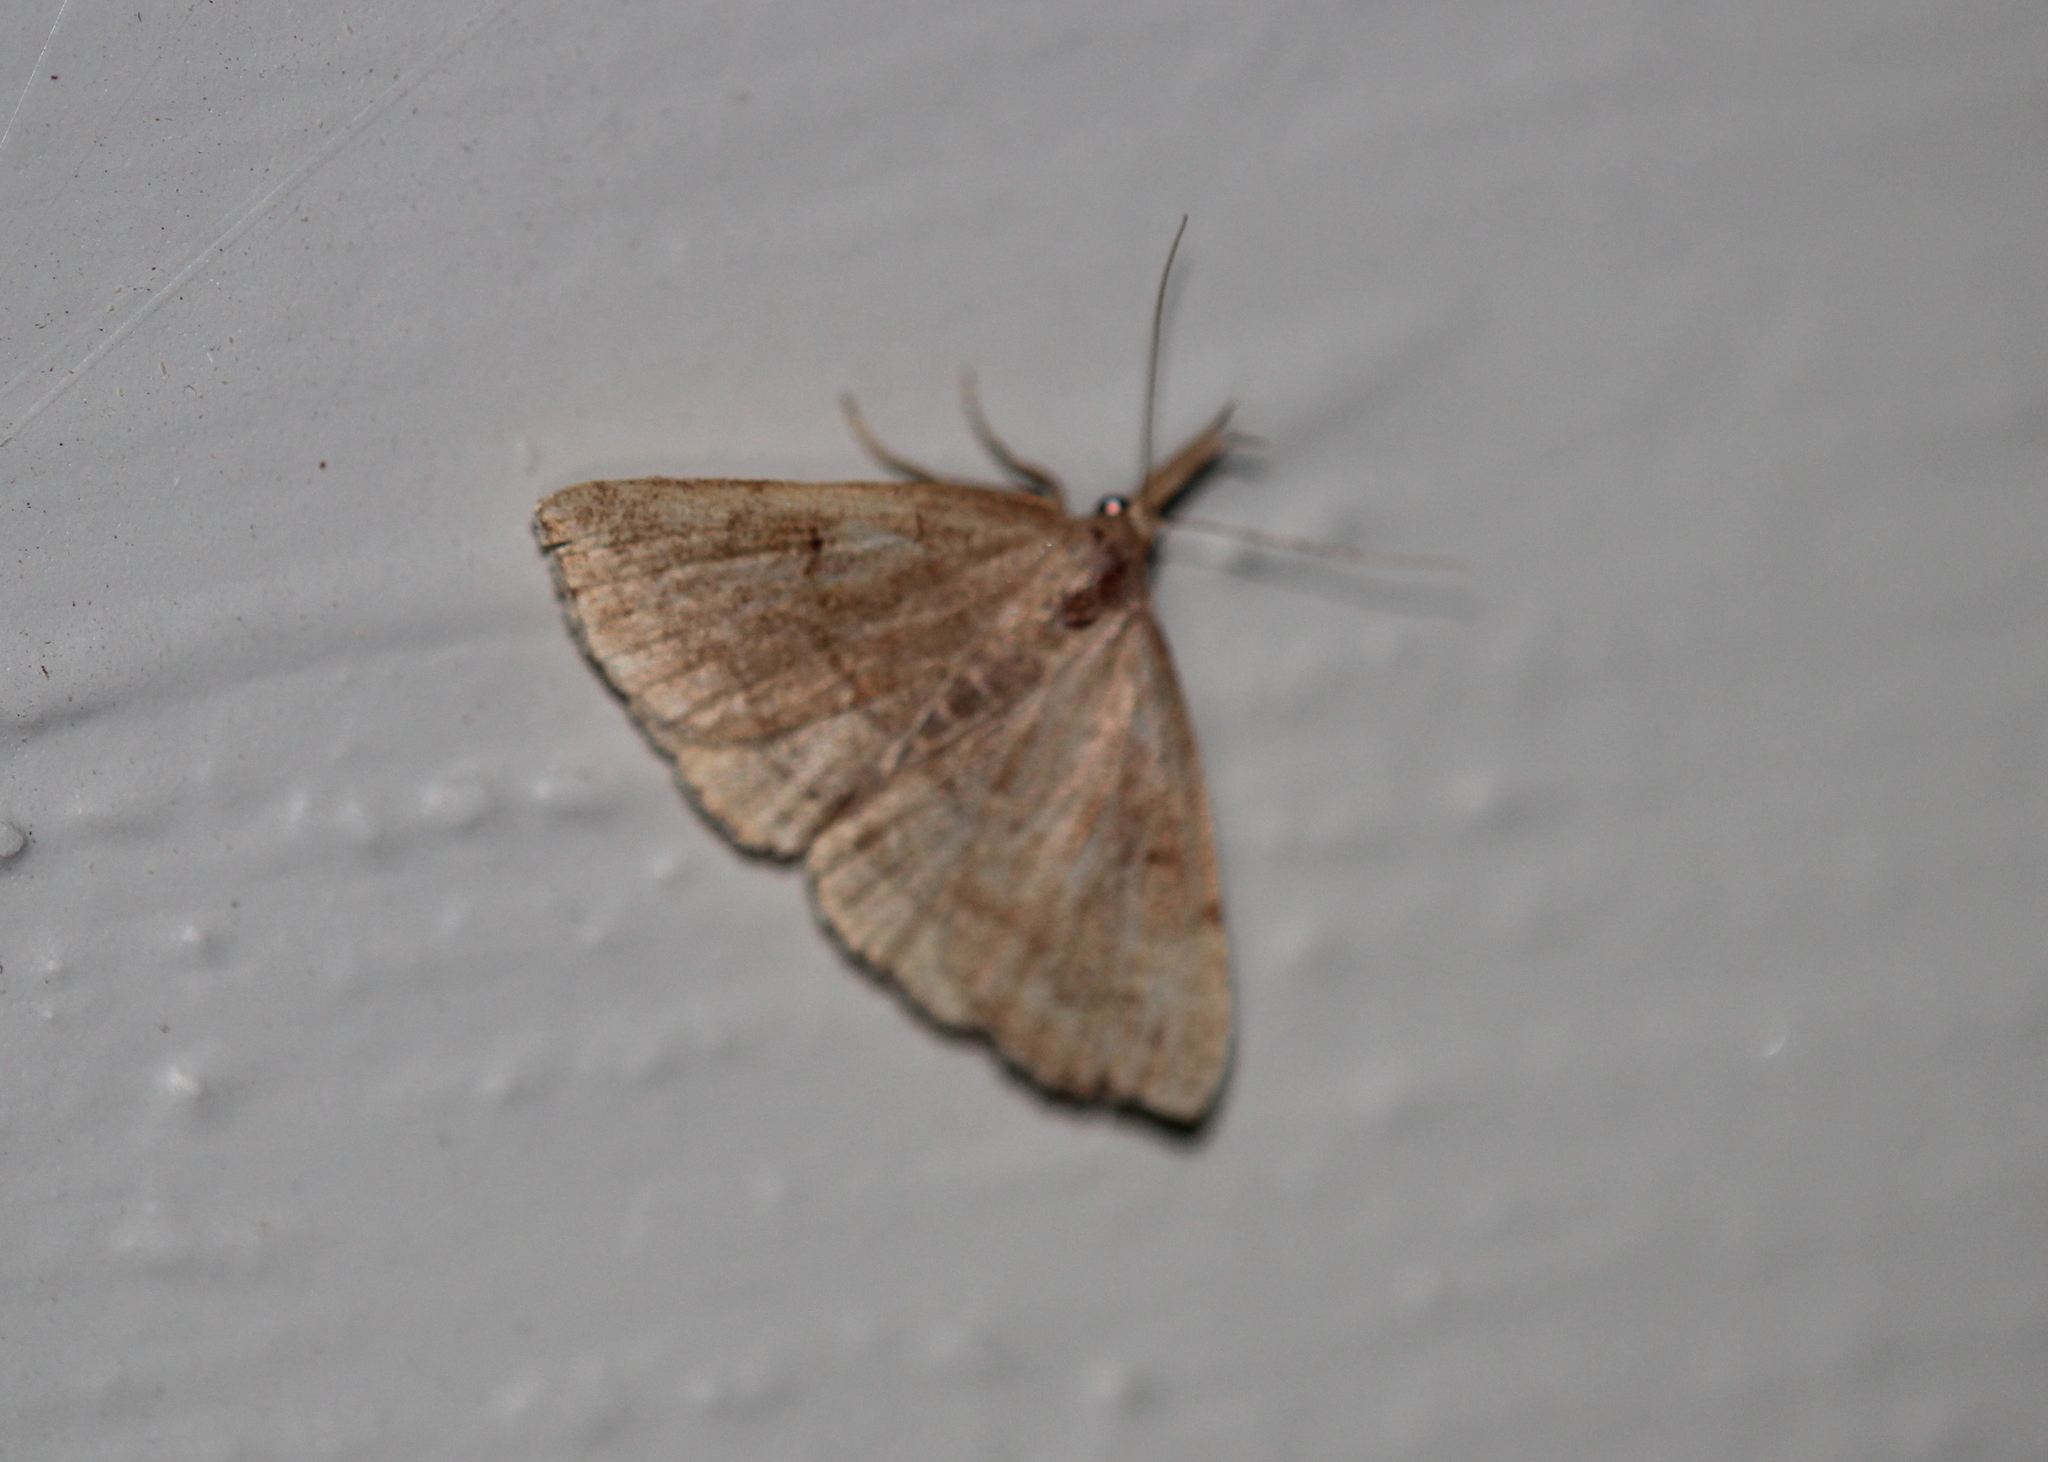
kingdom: Animalia
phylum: Arthropoda
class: Insecta
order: Lepidoptera
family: Erebidae
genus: Phalaenostola
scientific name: Phalaenostola metonalis
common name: Pale phalaenostola moth
